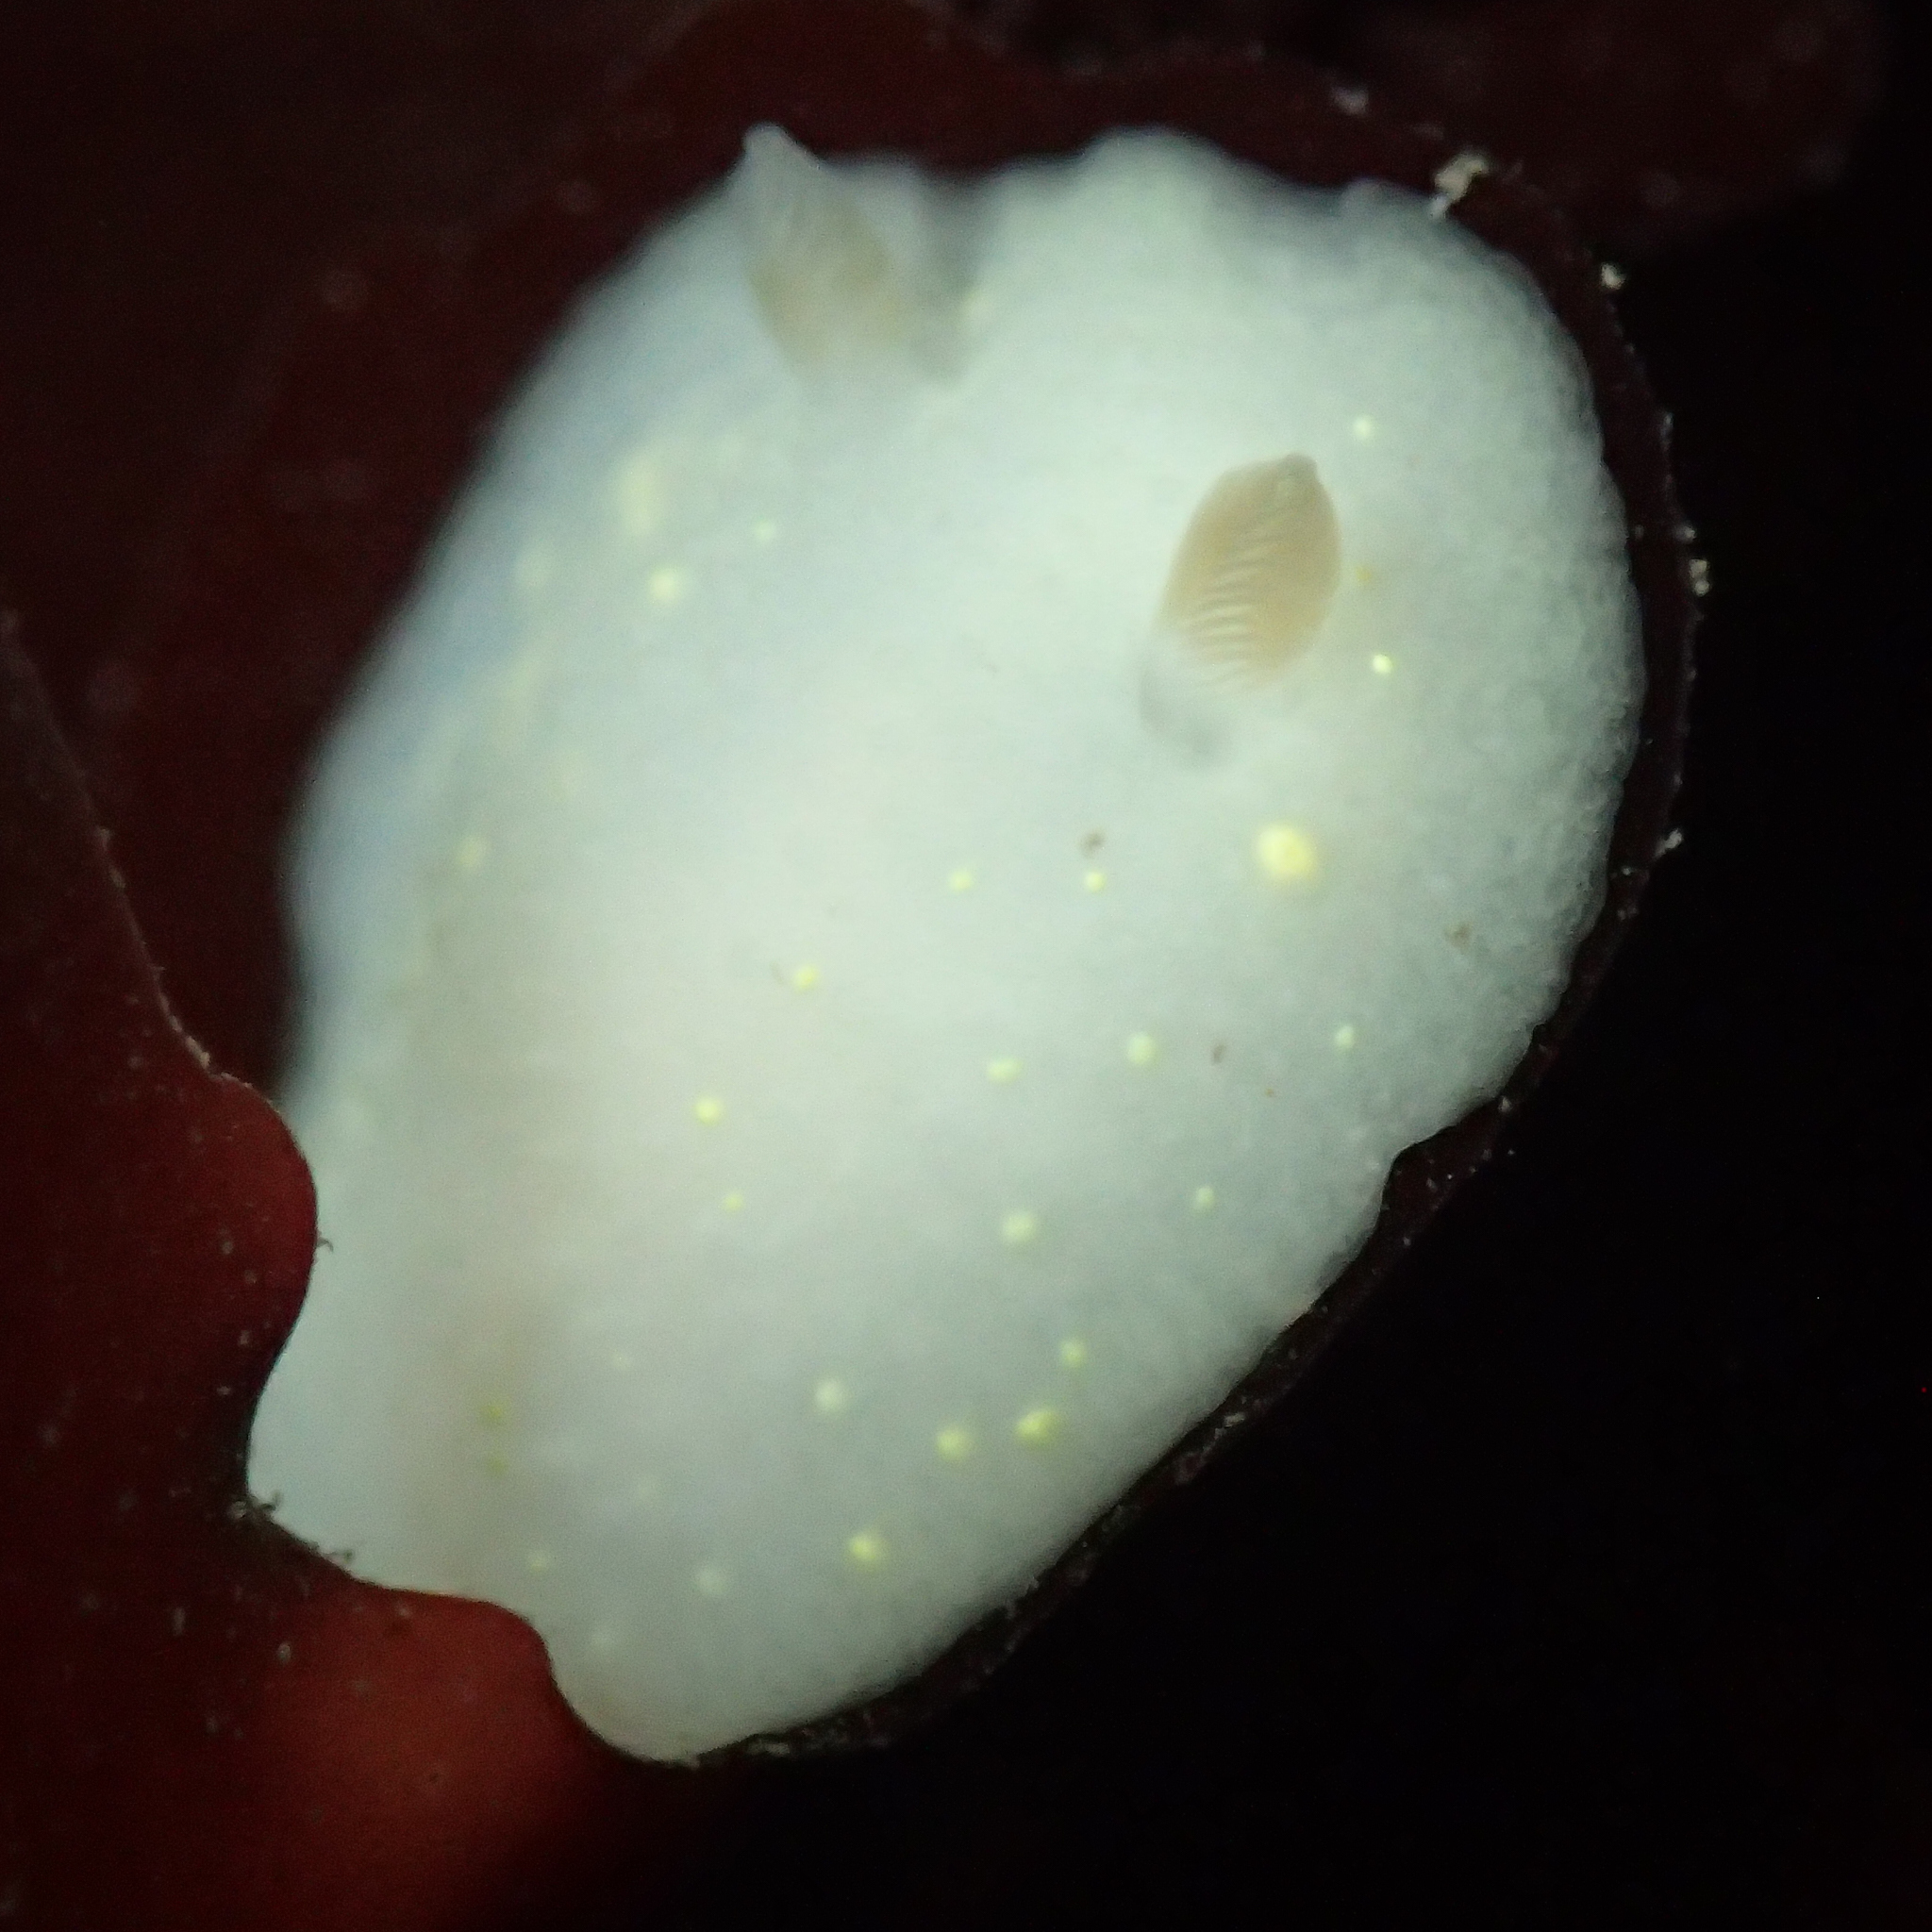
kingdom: Animalia
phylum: Mollusca
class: Gastropoda
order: Nudibranchia
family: Cadlinidae
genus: Cadlina
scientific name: Cadlina modesta
